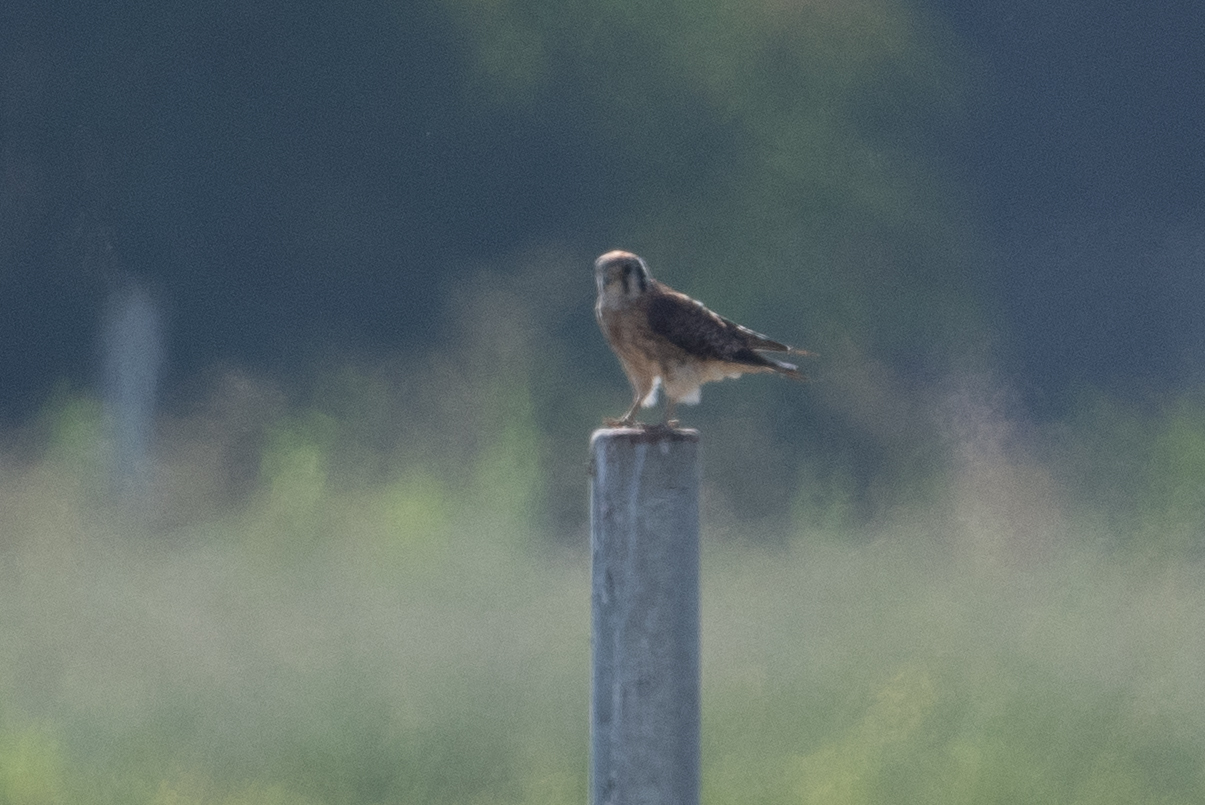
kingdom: Animalia
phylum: Chordata
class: Aves
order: Falconiformes
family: Falconidae
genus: Falco
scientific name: Falco sparverius
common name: American kestrel
